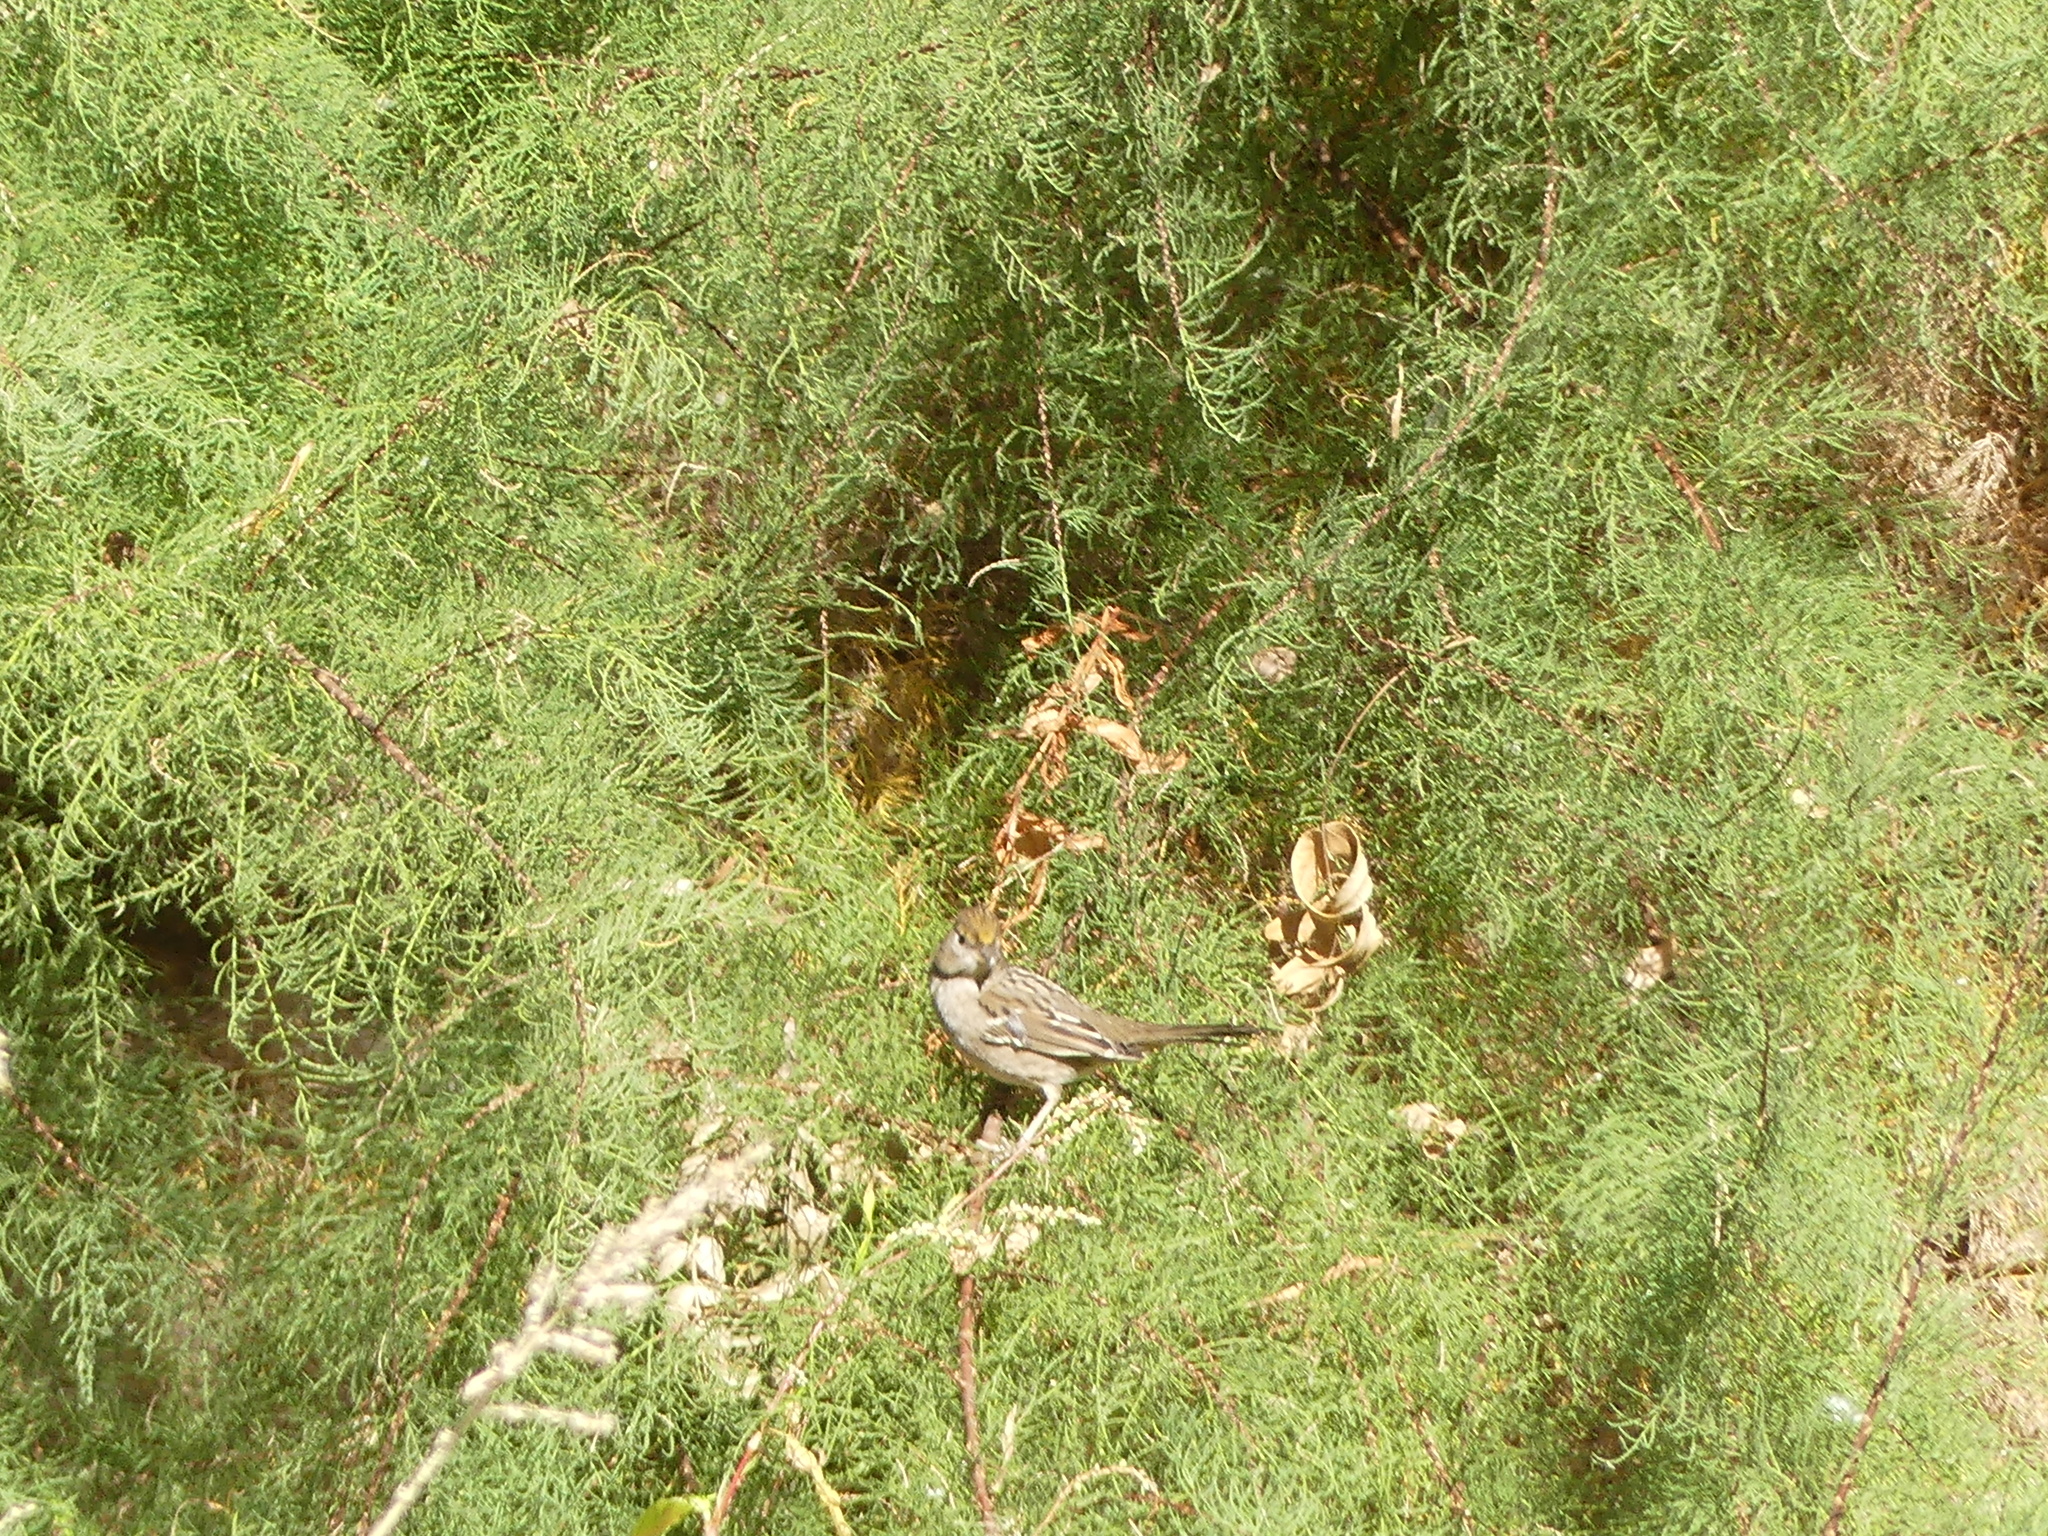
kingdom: Animalia
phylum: Chordata
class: Aves
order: Passeriformes
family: Passerellidae
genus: Zonotrichia
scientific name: Zonotrichia atricapilla
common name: Golden-crowned sparrow
